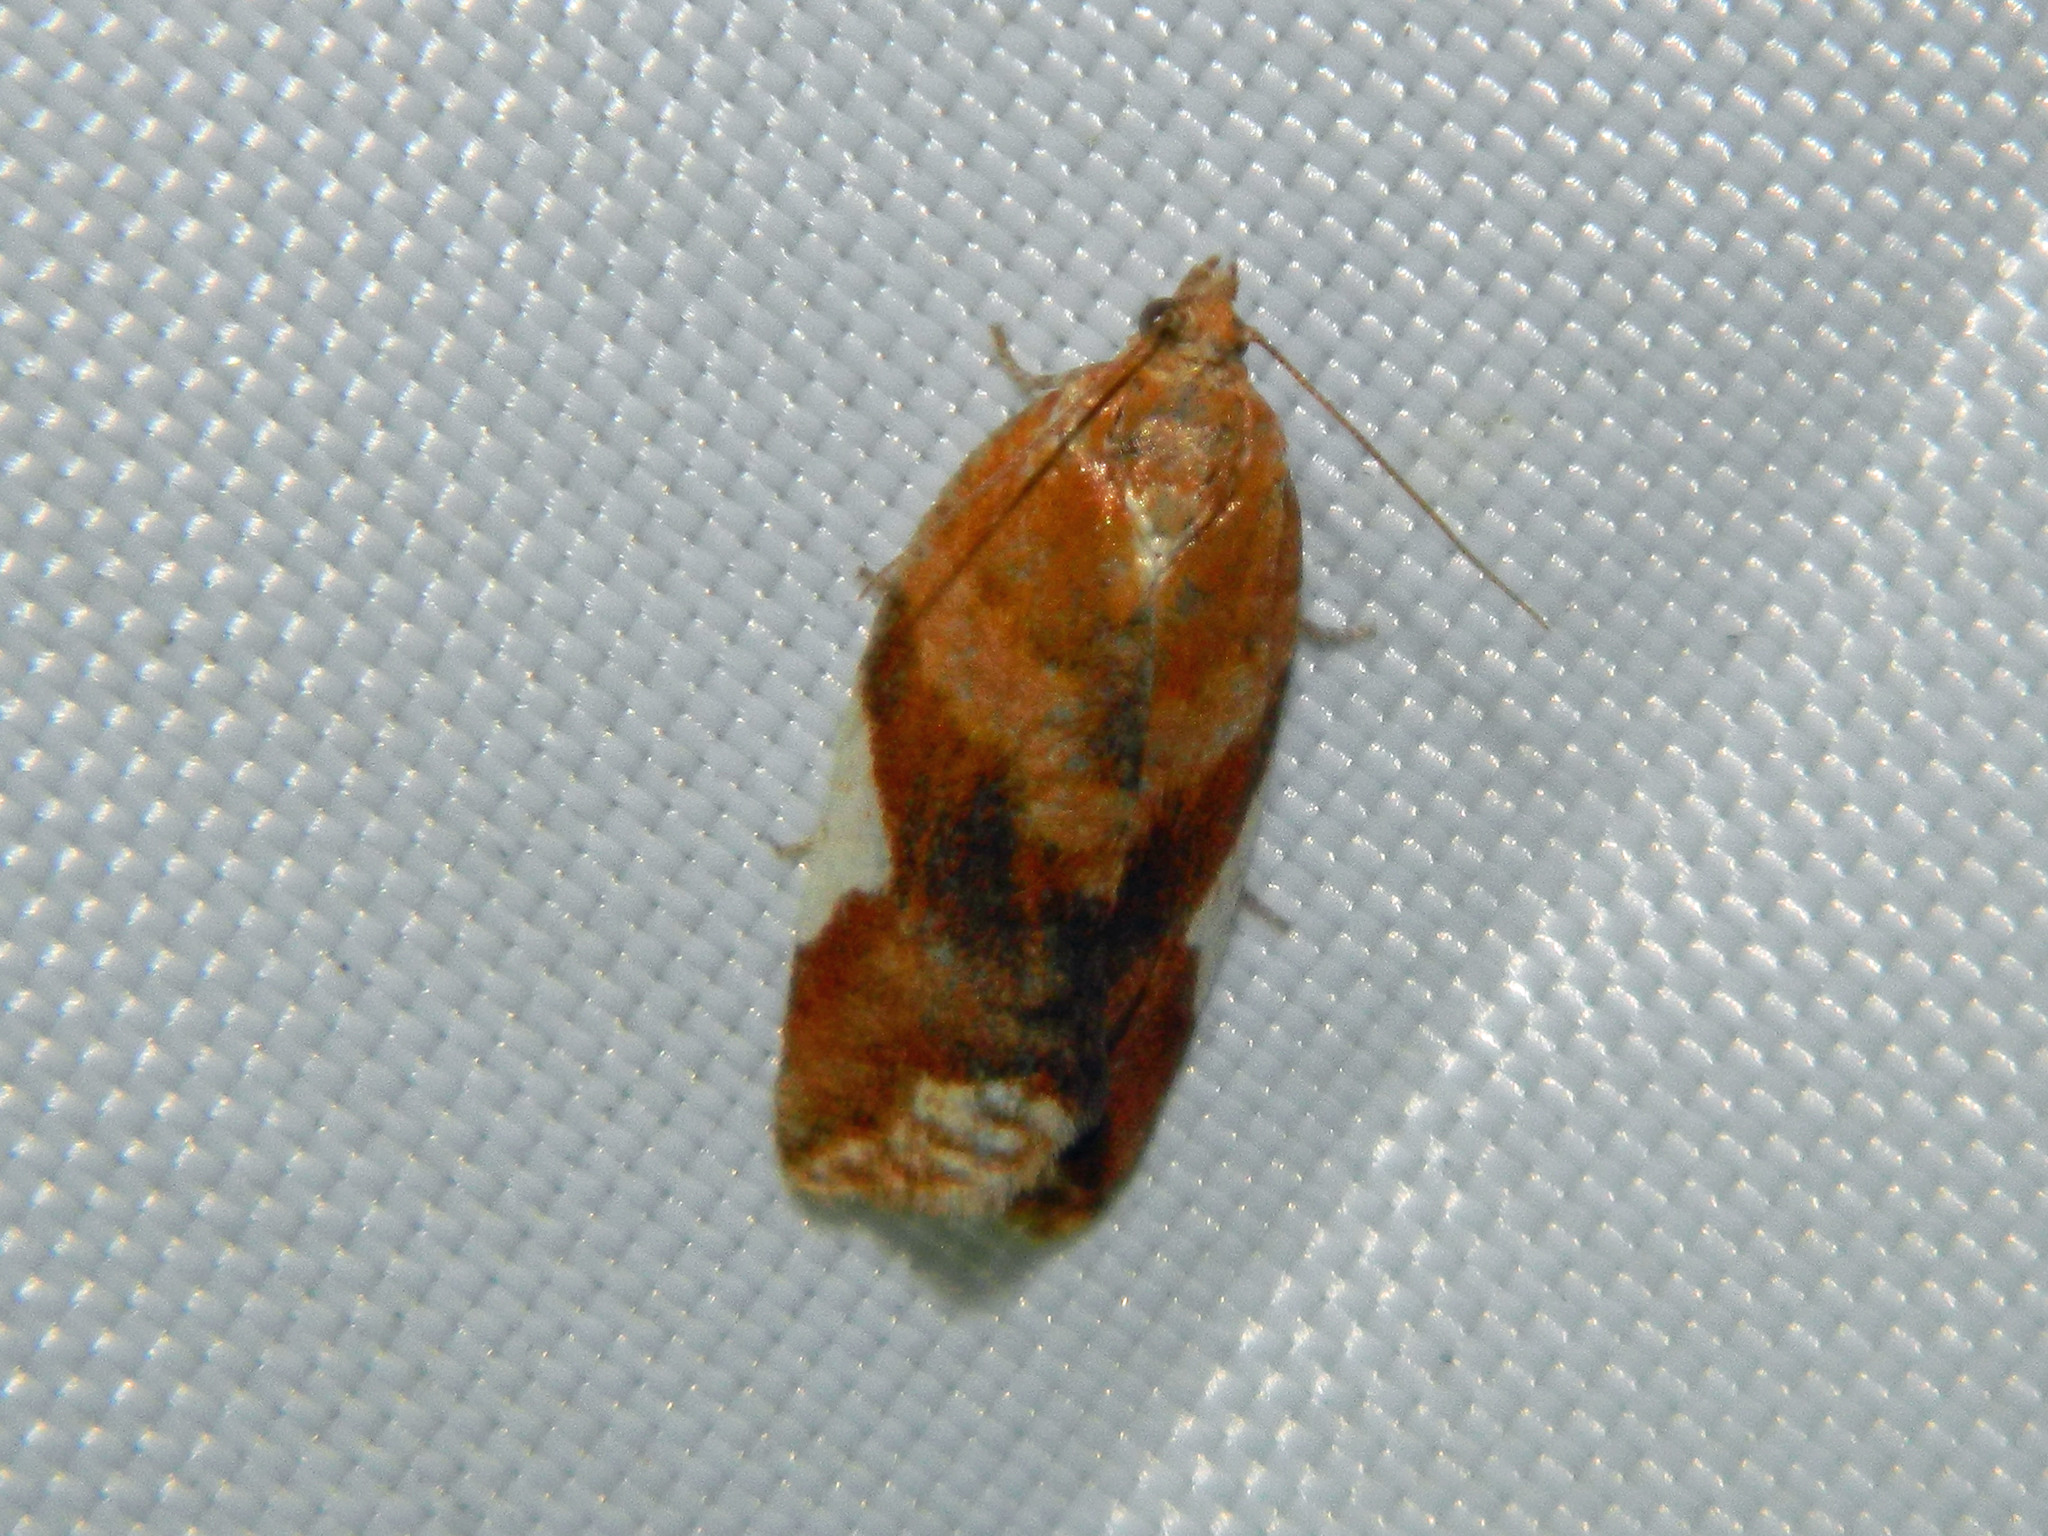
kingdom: Animalia
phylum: Arthropoda
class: Insecta
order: Lepidoptera
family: Tortricidae
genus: Clepsis
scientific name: Clepsis persicana
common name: White triangle tortrix
